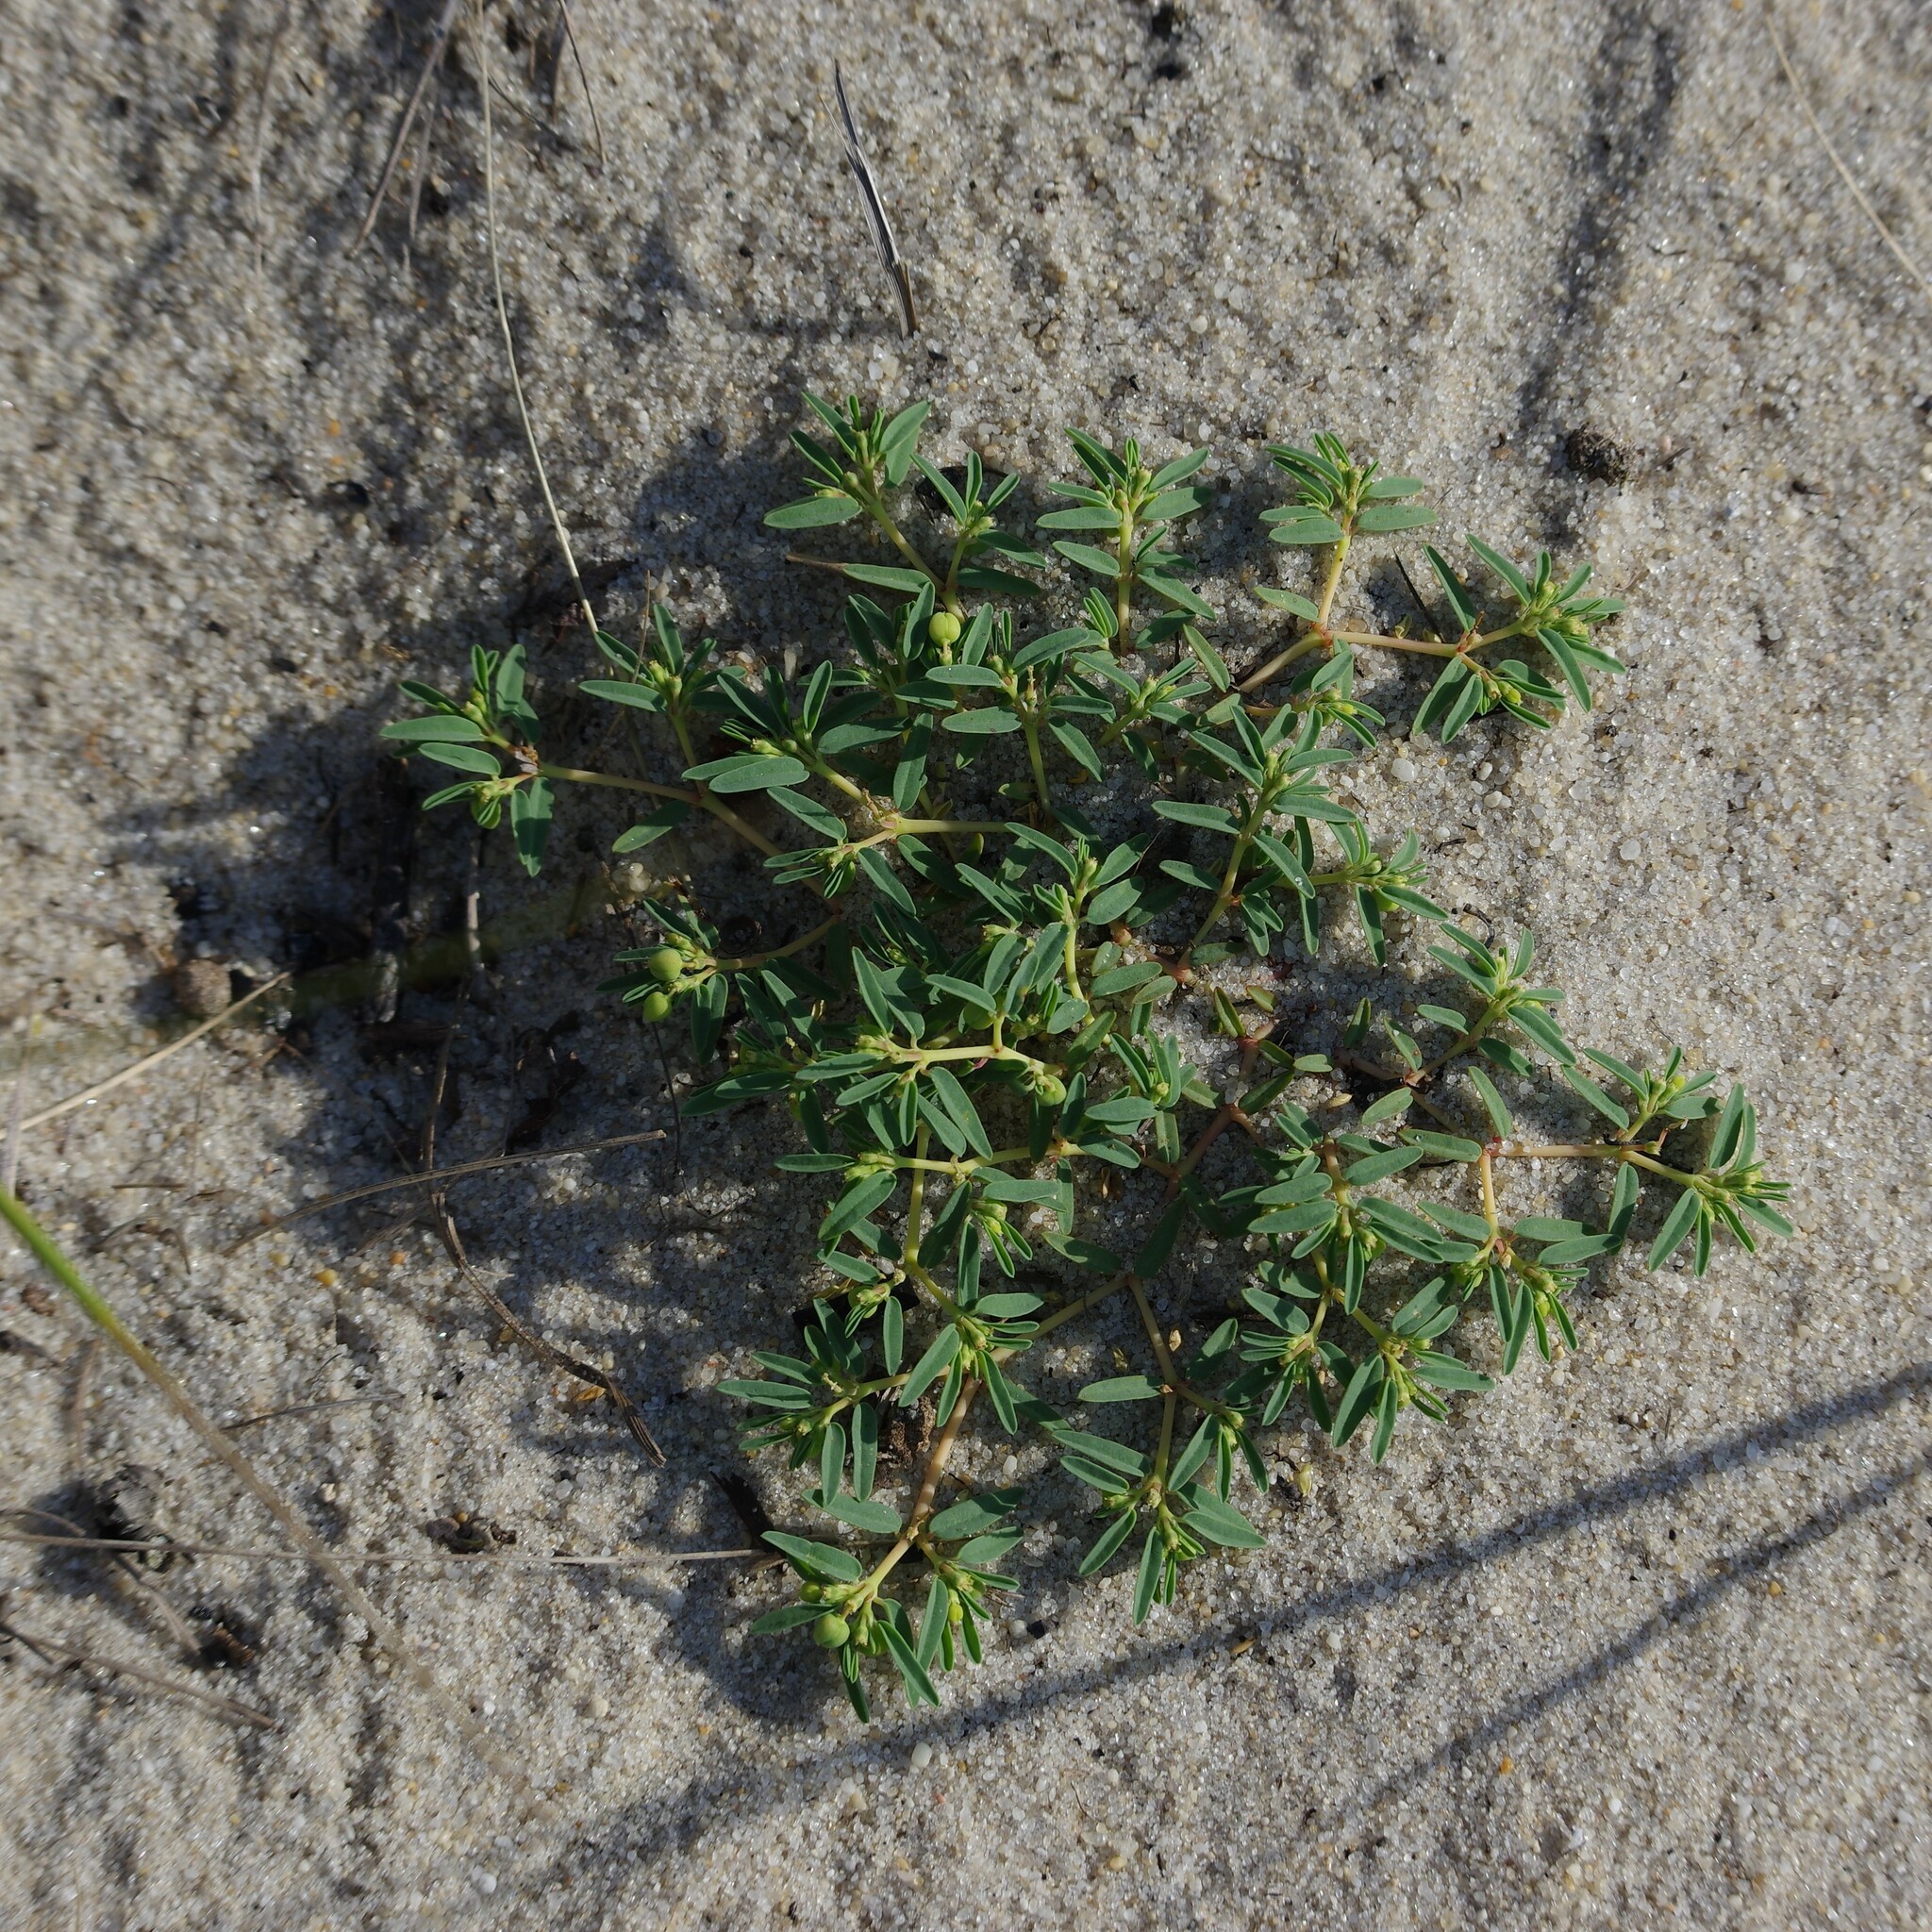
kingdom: Plantae
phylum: Tracheophyta
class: Magnoliopsida
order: Malpighiales
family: Euphorbiaceae
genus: Euphorbia
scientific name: Euphorbia polygonifolia
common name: Knotweed spurge
